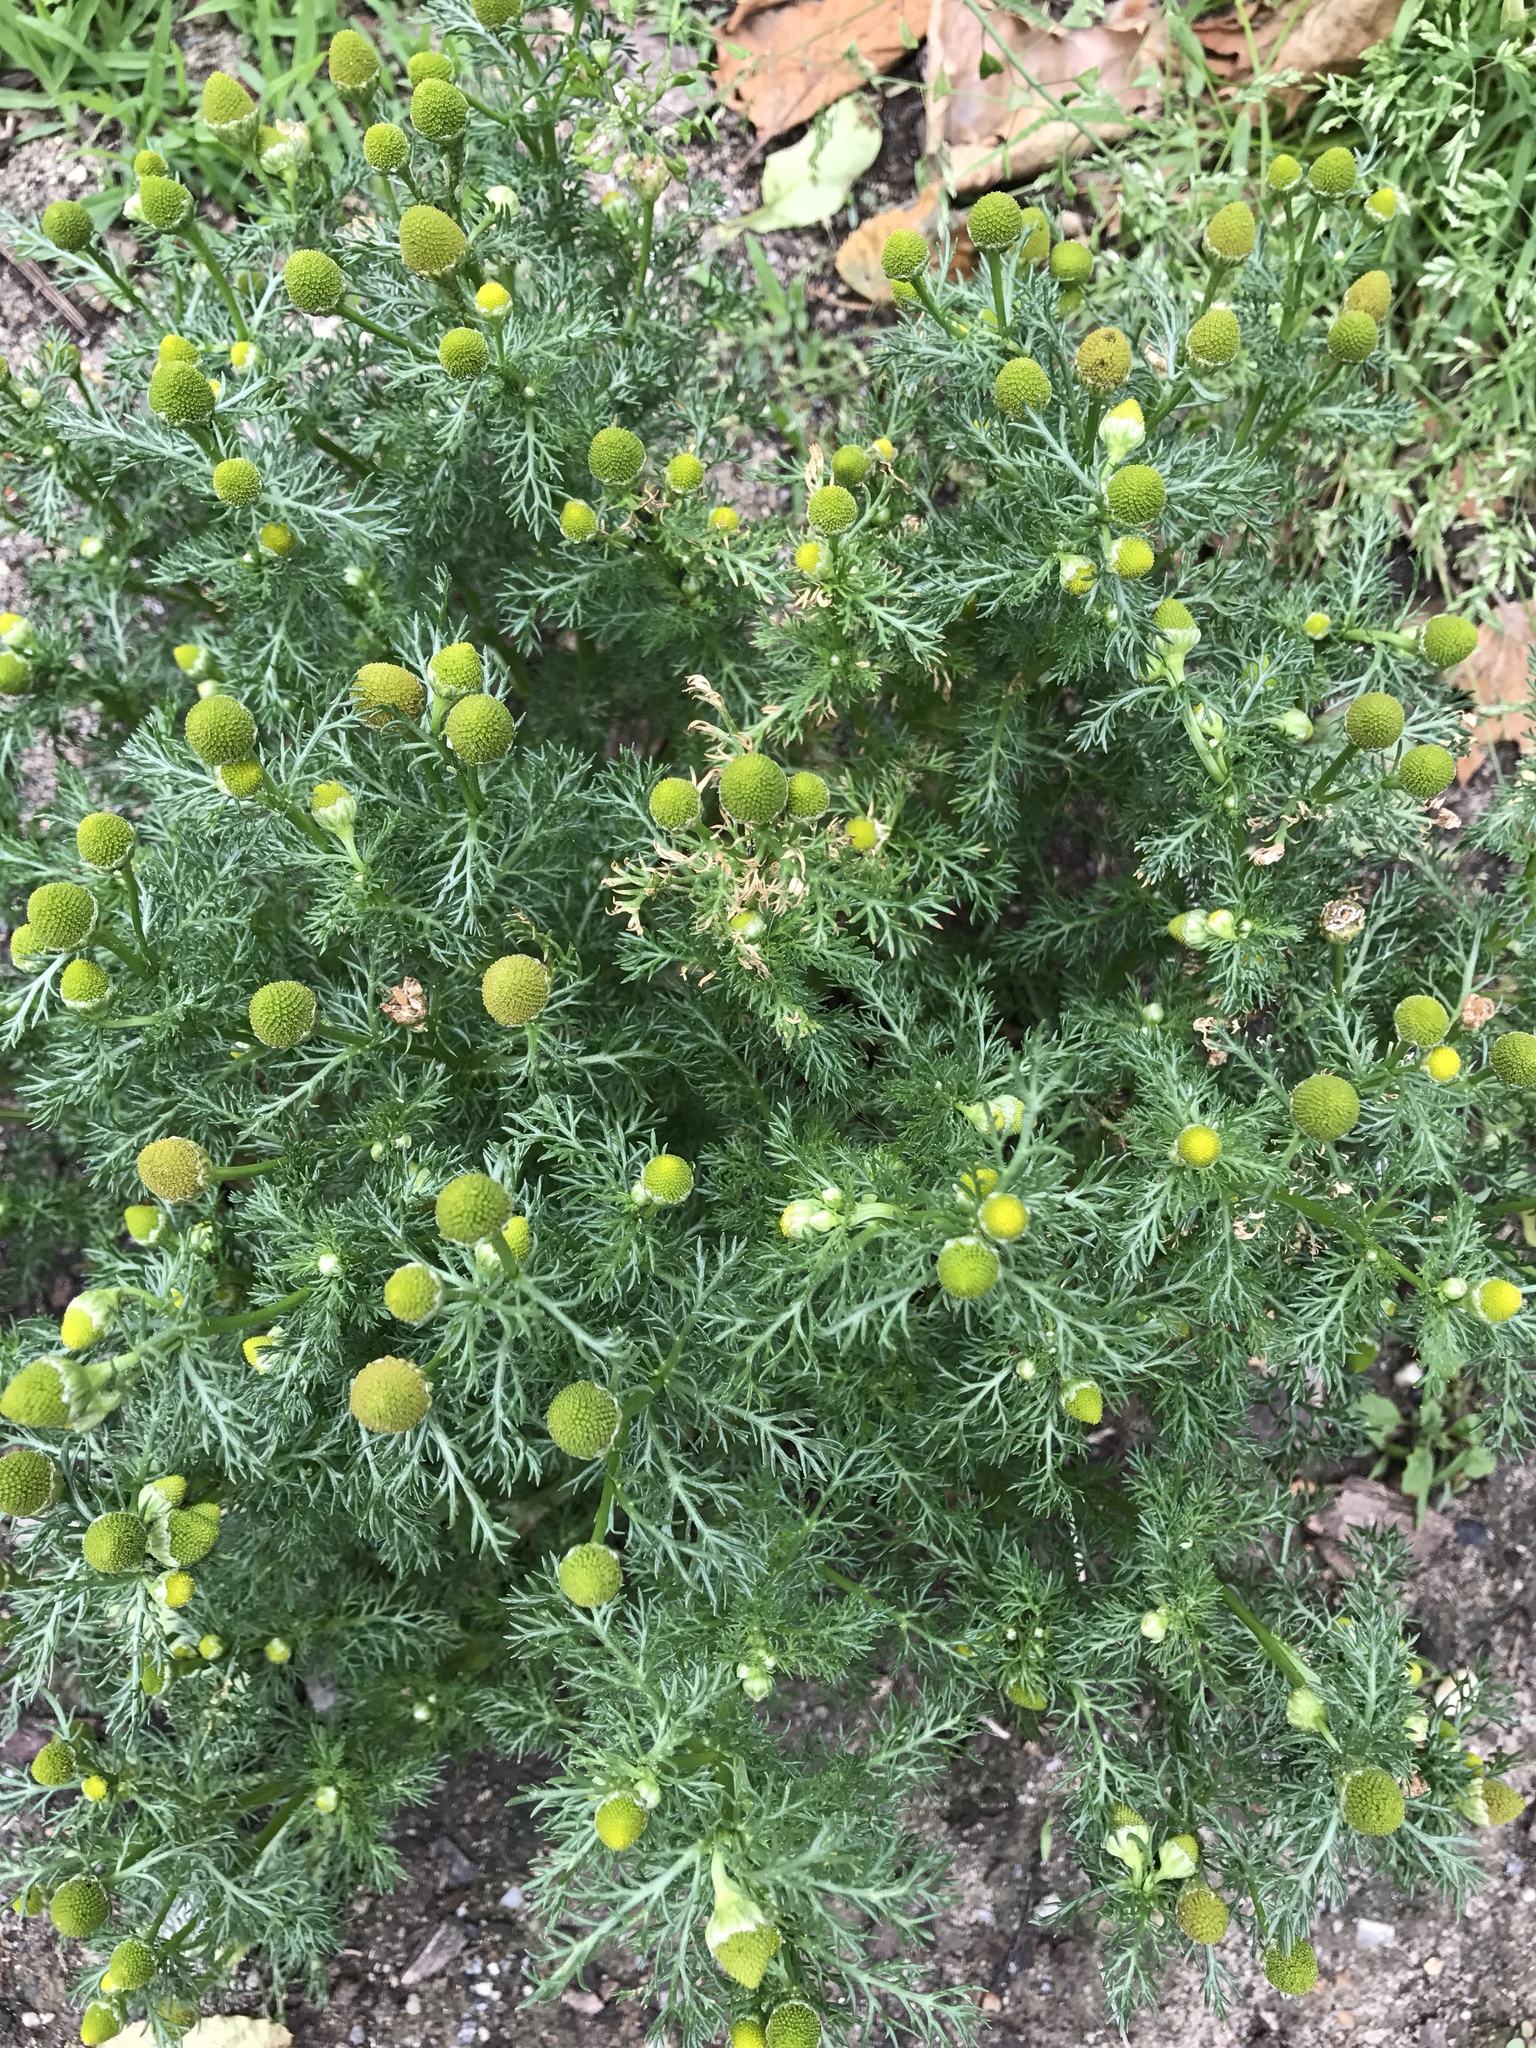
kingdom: Plantae
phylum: Tracheophyta
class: Magnoliopsida
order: Asterales
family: Asteraceae
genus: Matricaria
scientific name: Matricaria discoidea
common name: Disc mayweed
